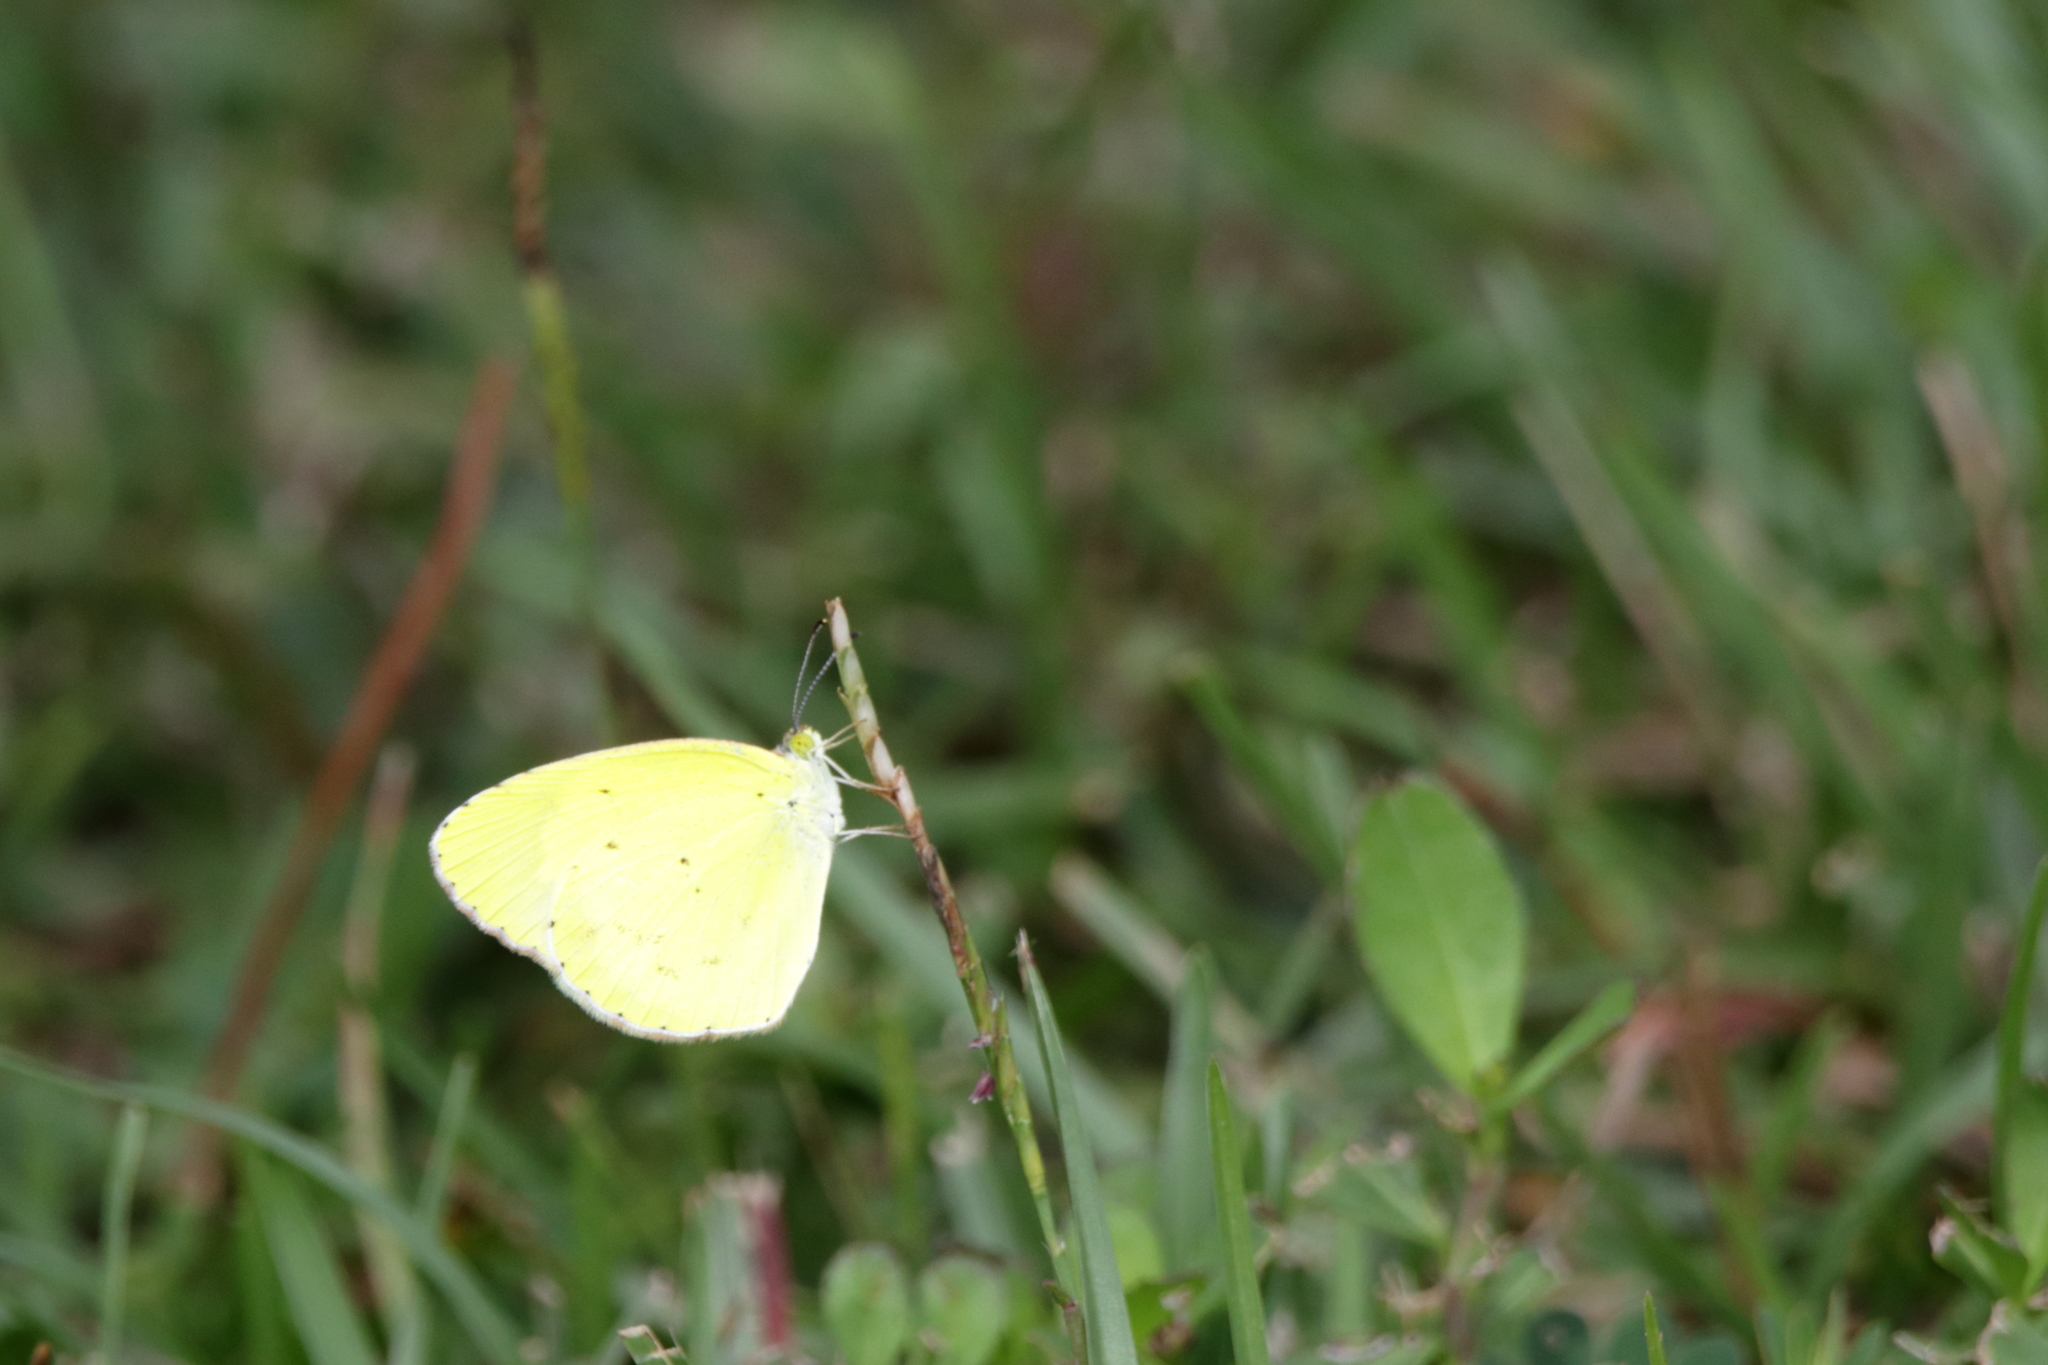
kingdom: Animalia
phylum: Arthropoda
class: Insecta
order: Lepidoptera
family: Pieridae
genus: Pyrisitia
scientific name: Pyrisitia lisa
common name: Little yellow
